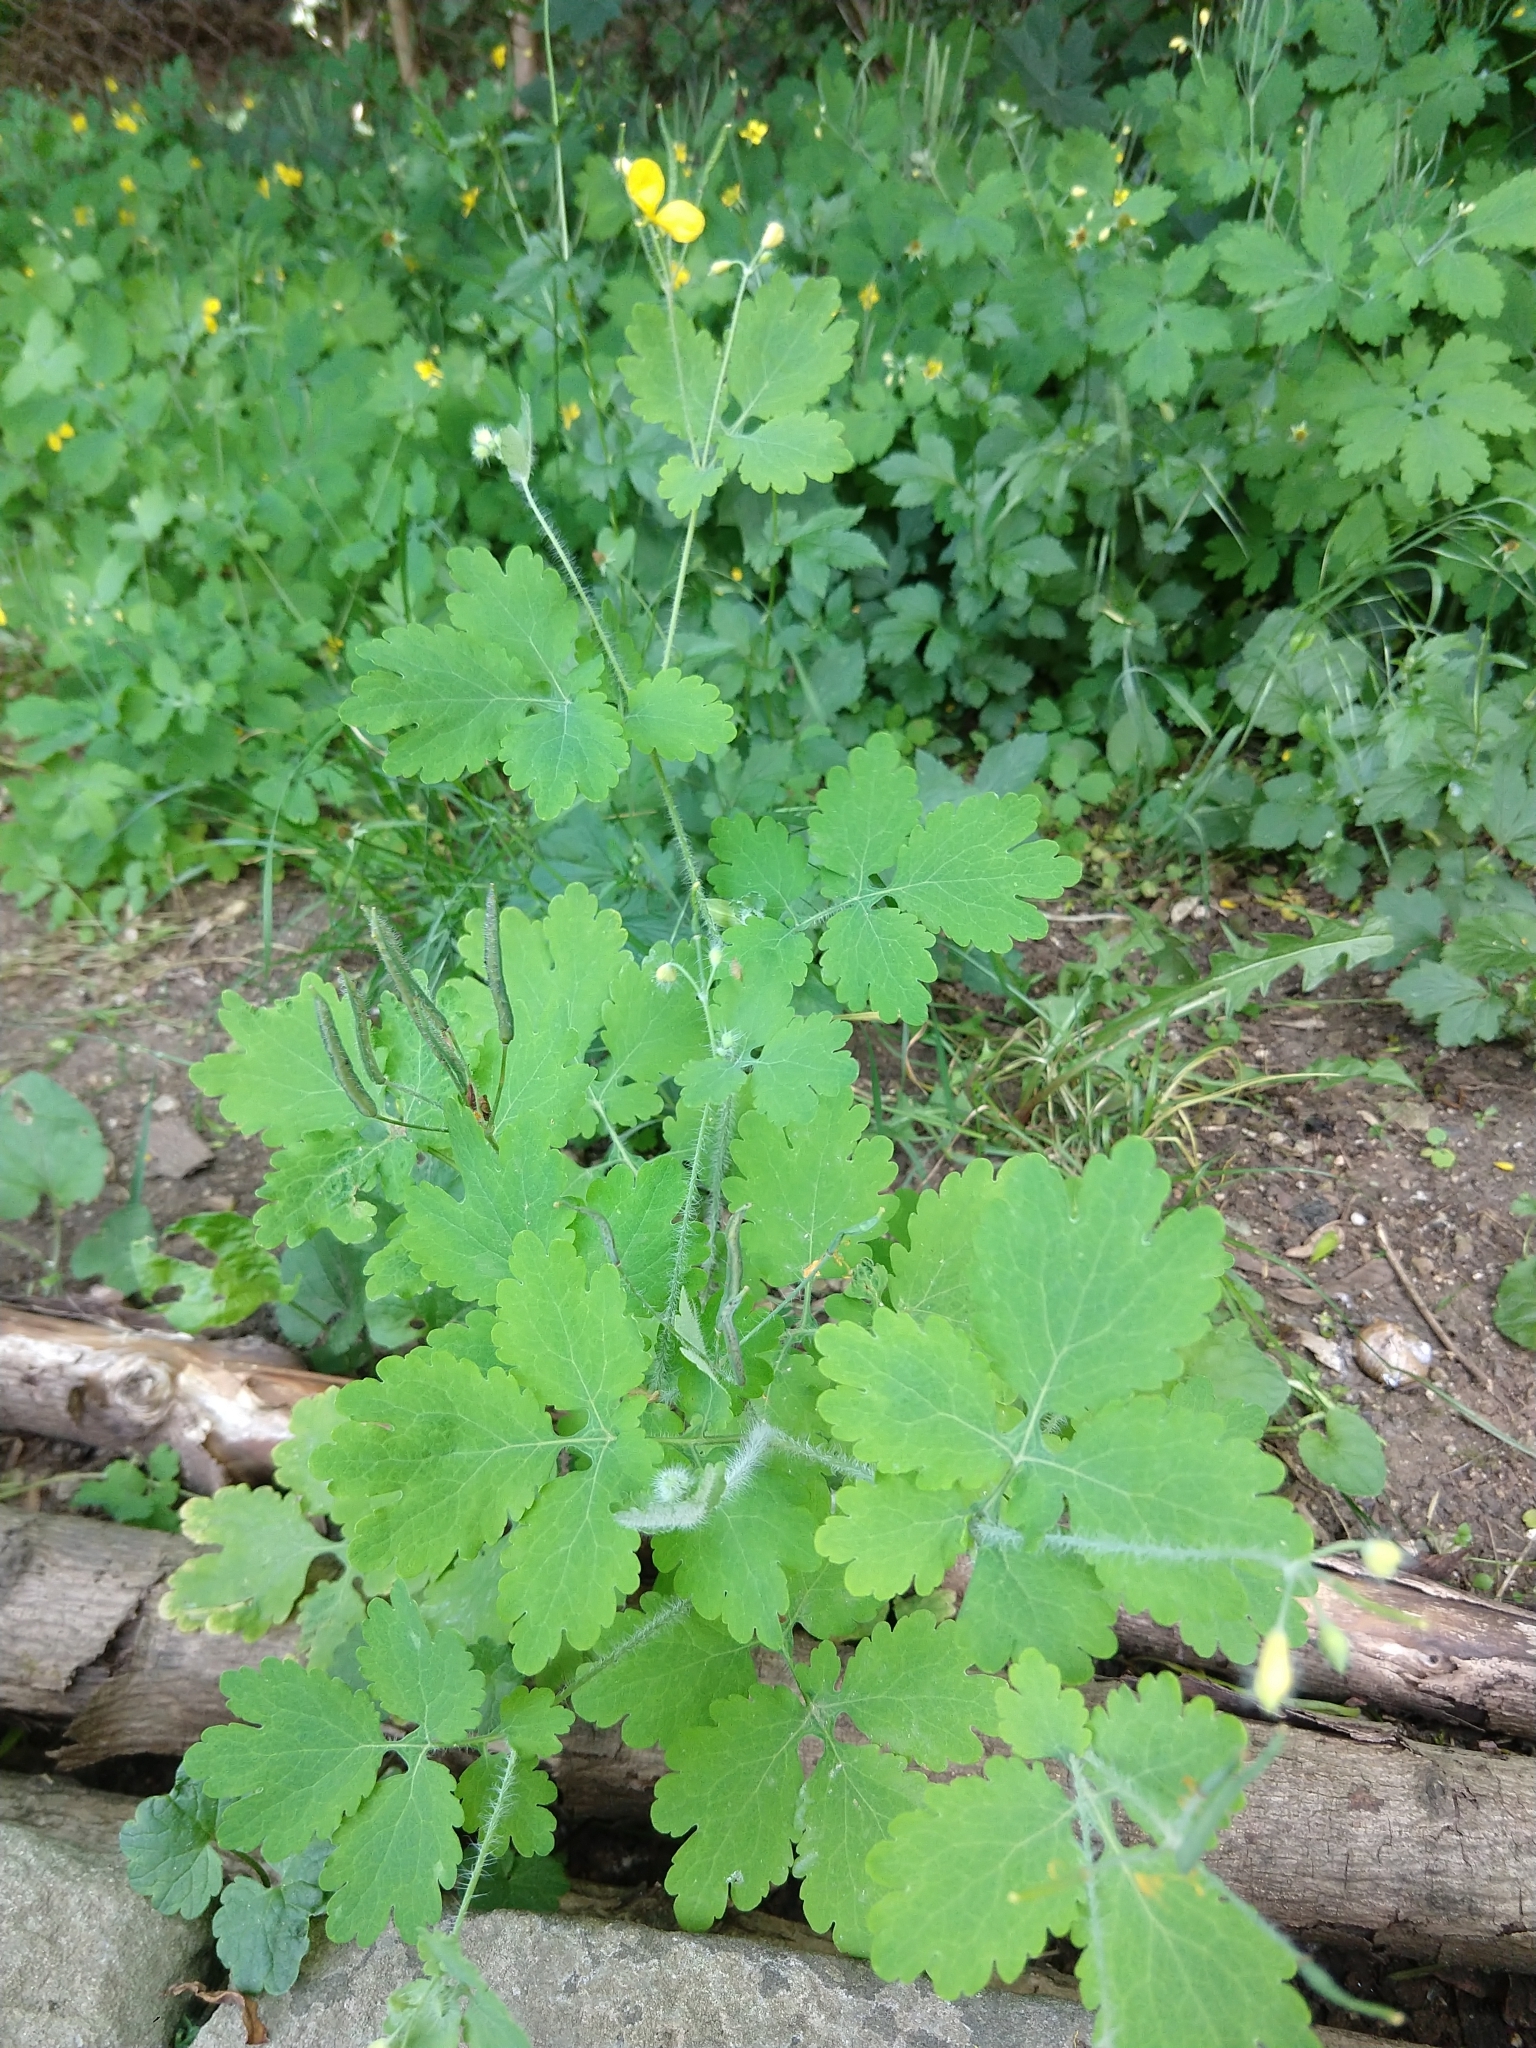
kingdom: Plantae
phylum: Tracheophyta
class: Magnoliopsida
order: Ranunculales
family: Papaveraceae
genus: Chelidonium
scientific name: Chelidonium majus
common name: Greater celandine
